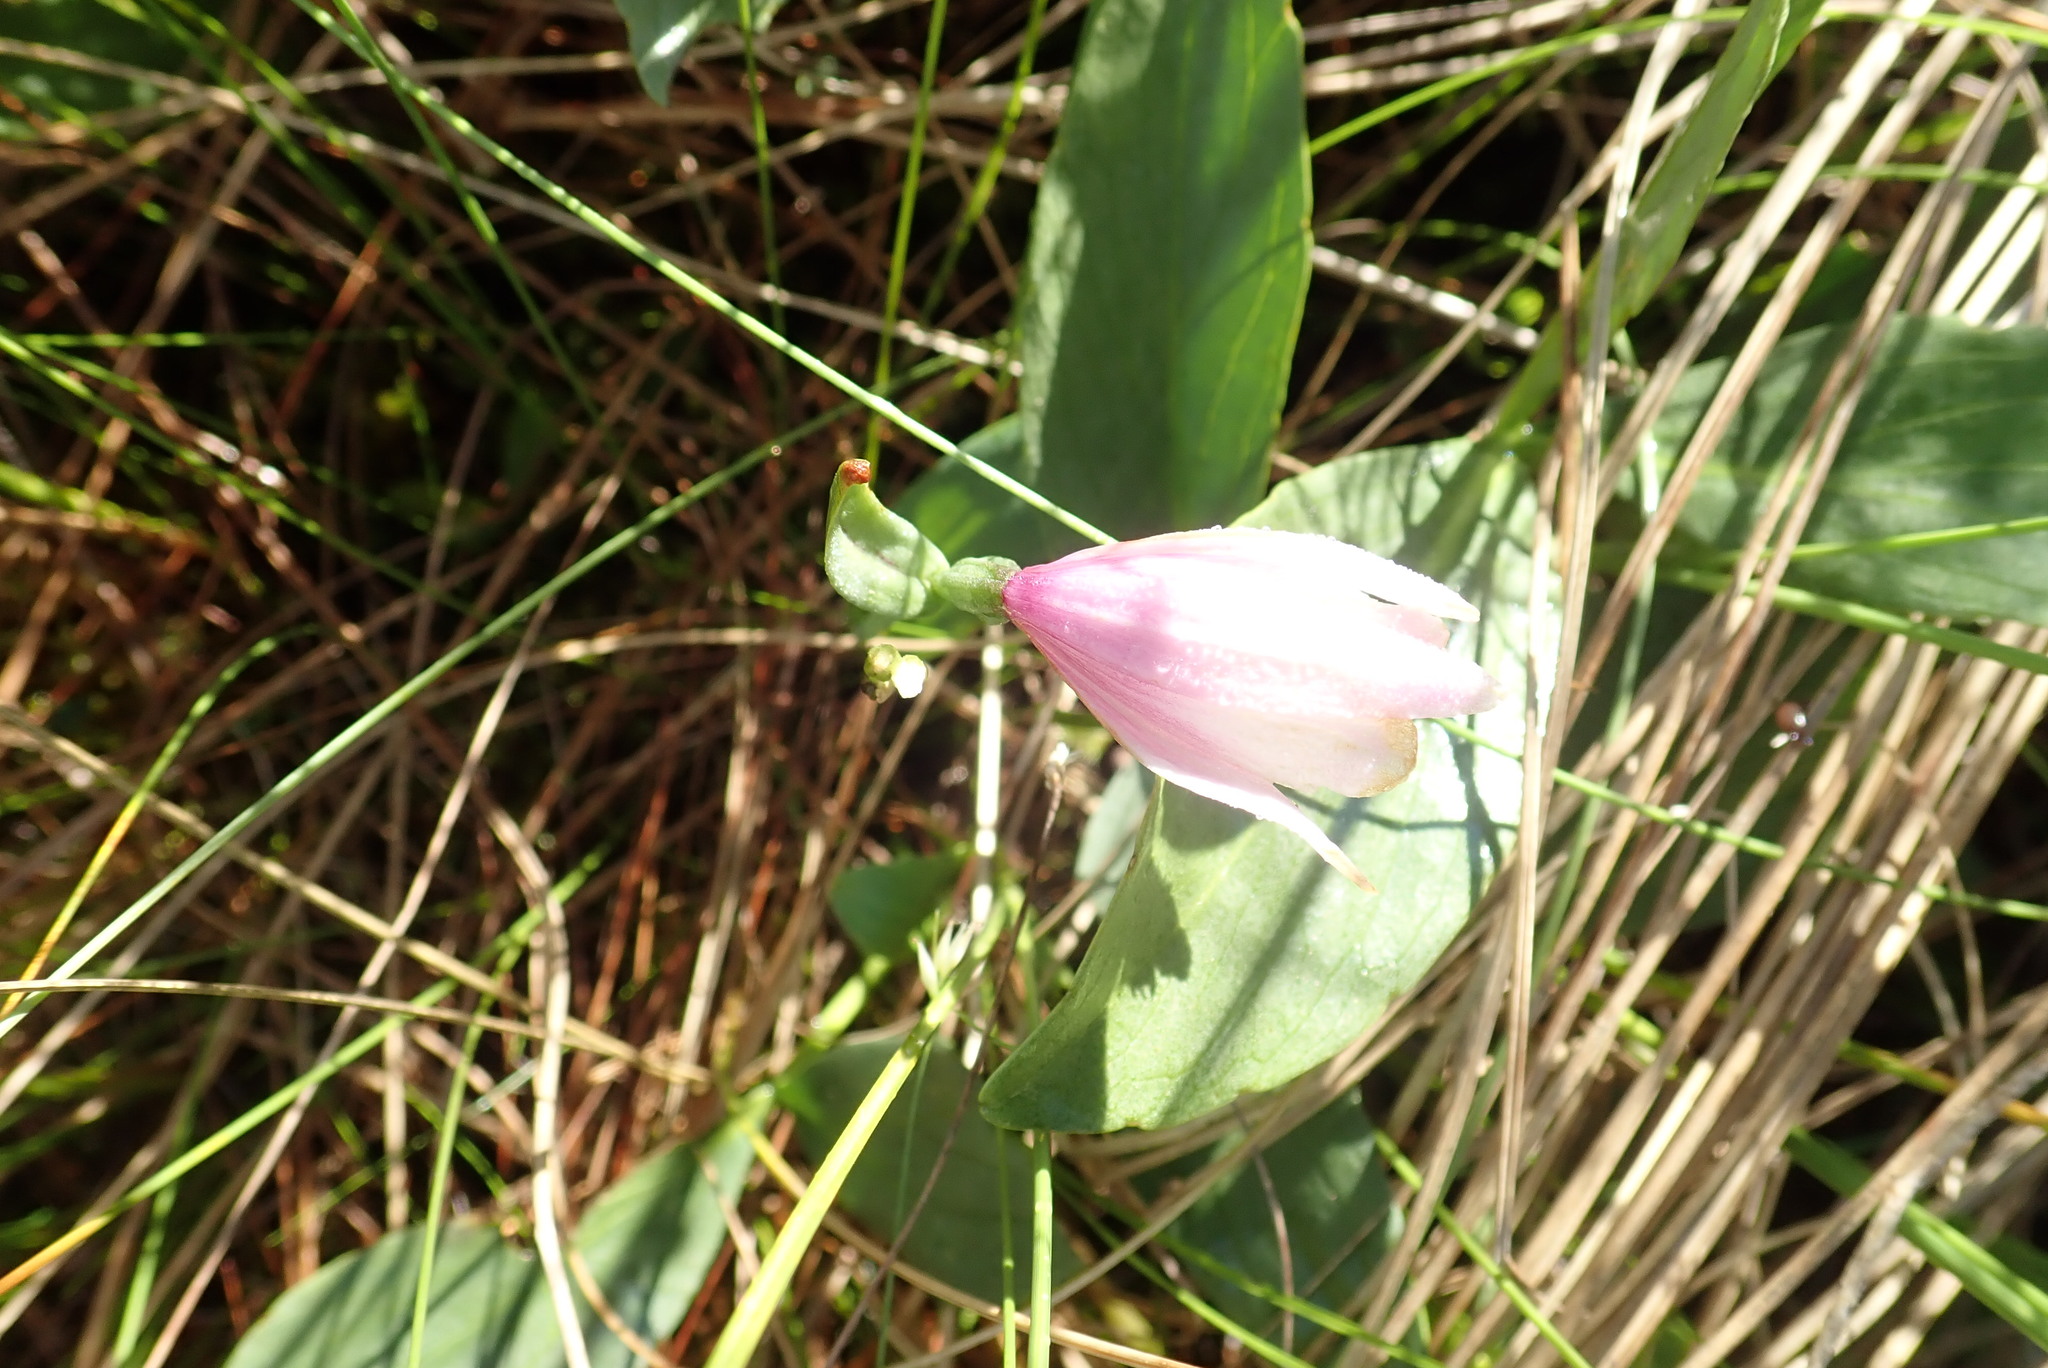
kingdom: Plantae
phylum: Tracheophyta
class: Liliopsida
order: Asparagales
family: Orchidaceae
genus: Pogonia
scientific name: Pogonia ophioglossoides
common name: Rose pogonia
